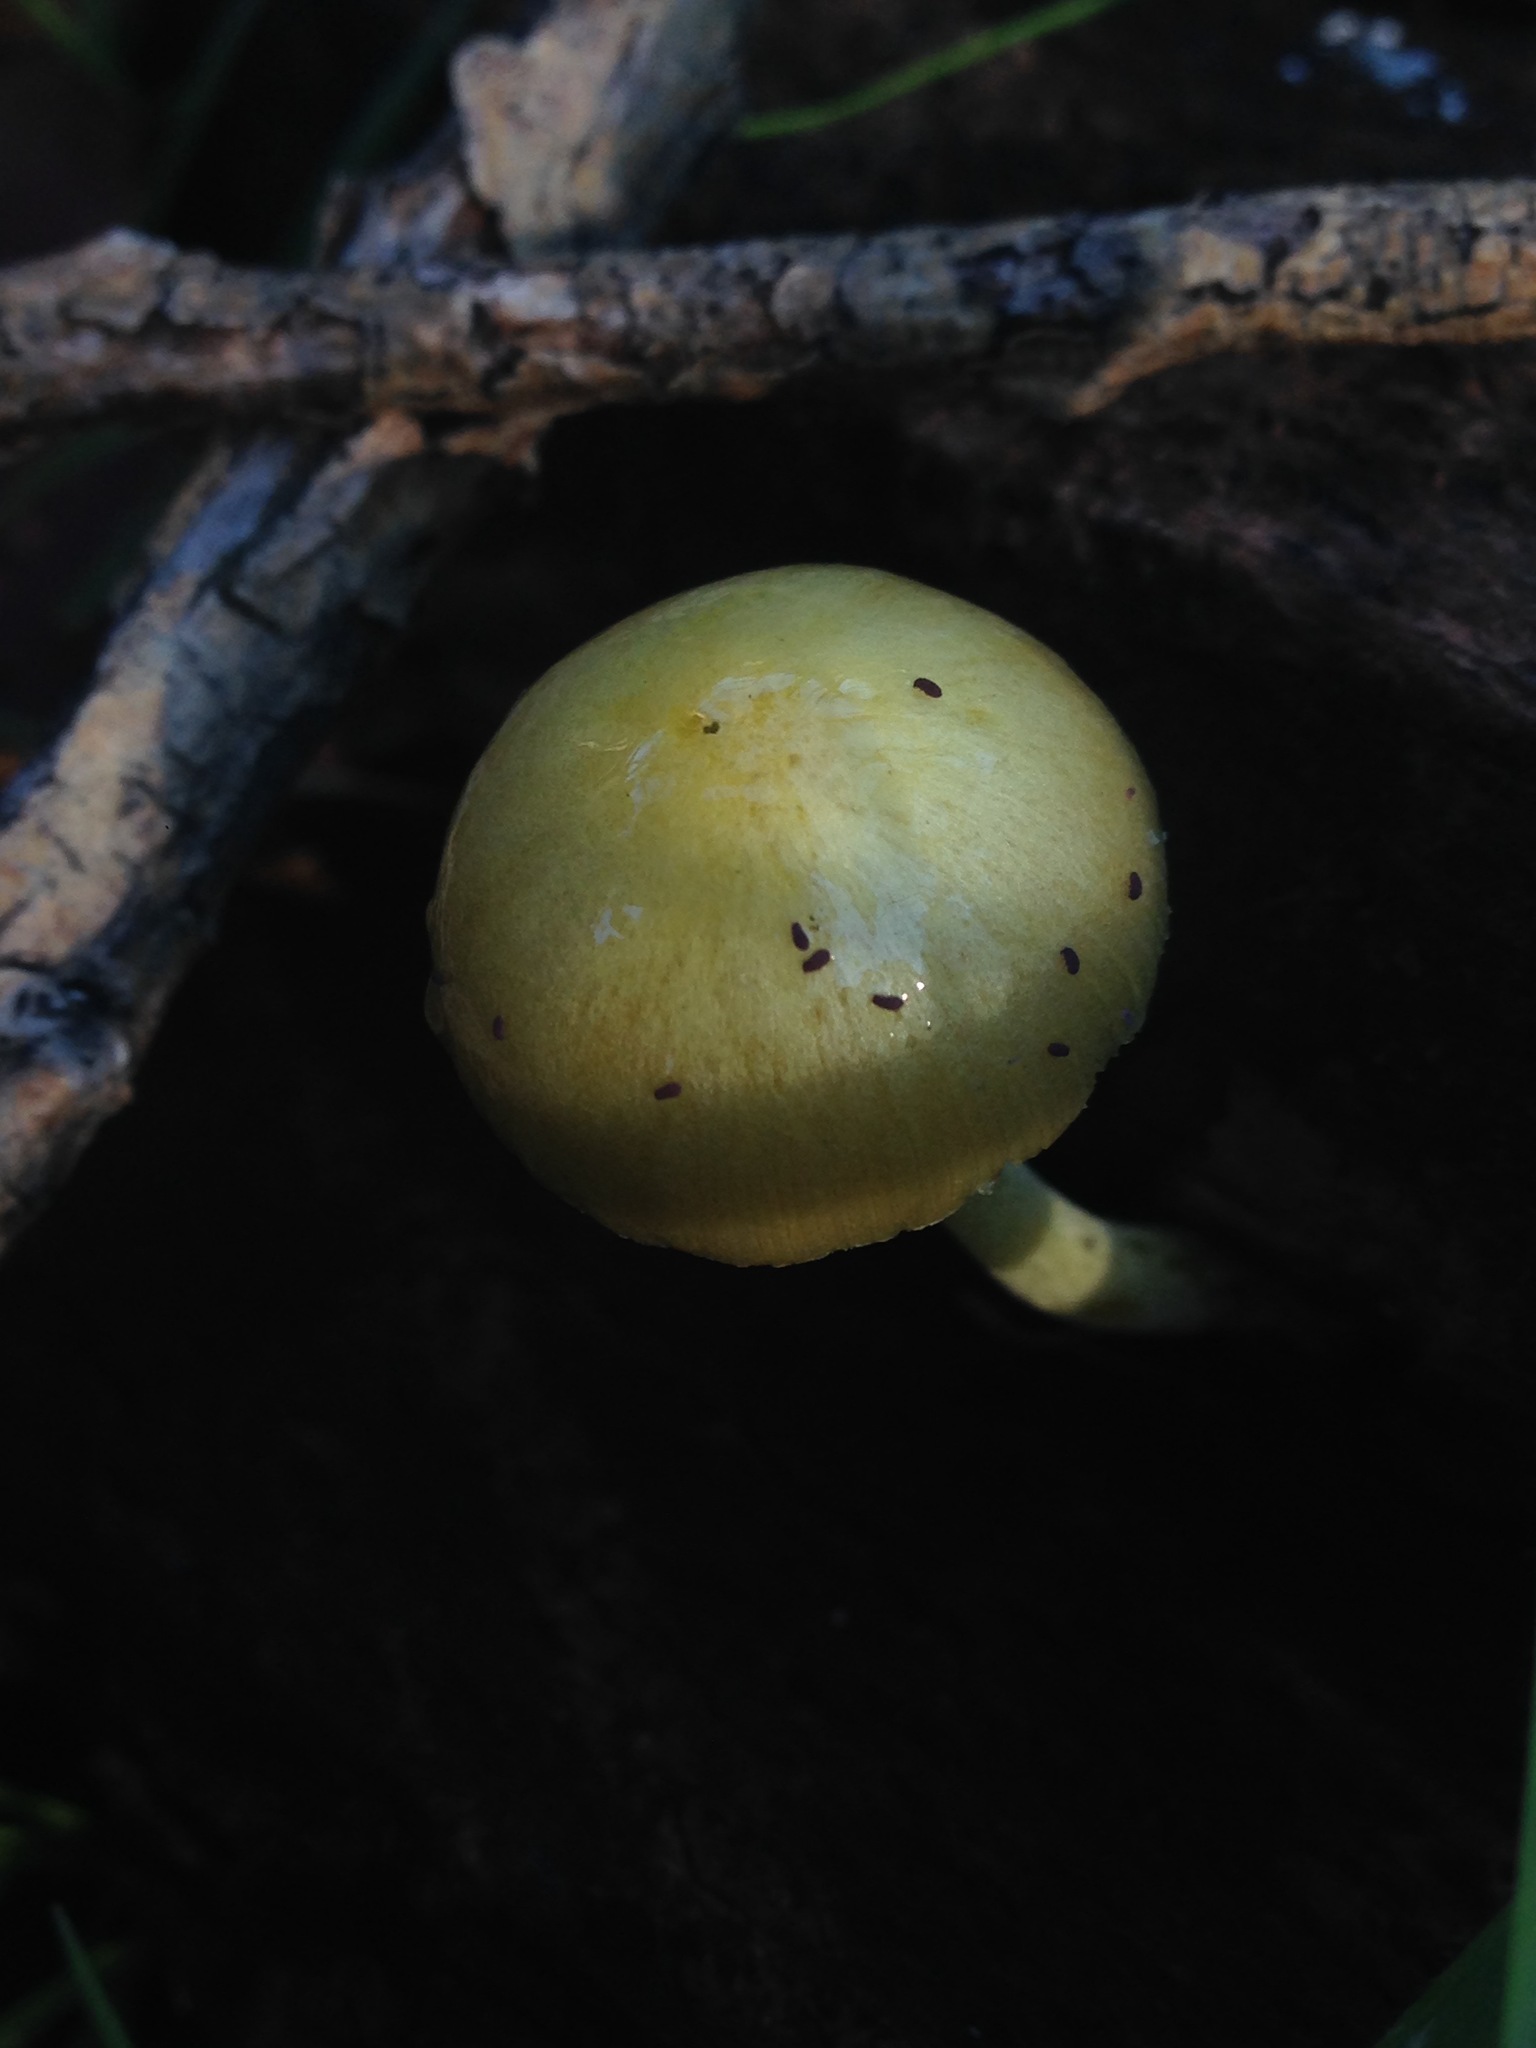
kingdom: Fungi
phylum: Basidiomycota
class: Agaricomycetes
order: Agaricales
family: Bolbitiaceae
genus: Bolbitius
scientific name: Bolbitius titubans
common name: Yellow fieldcap
